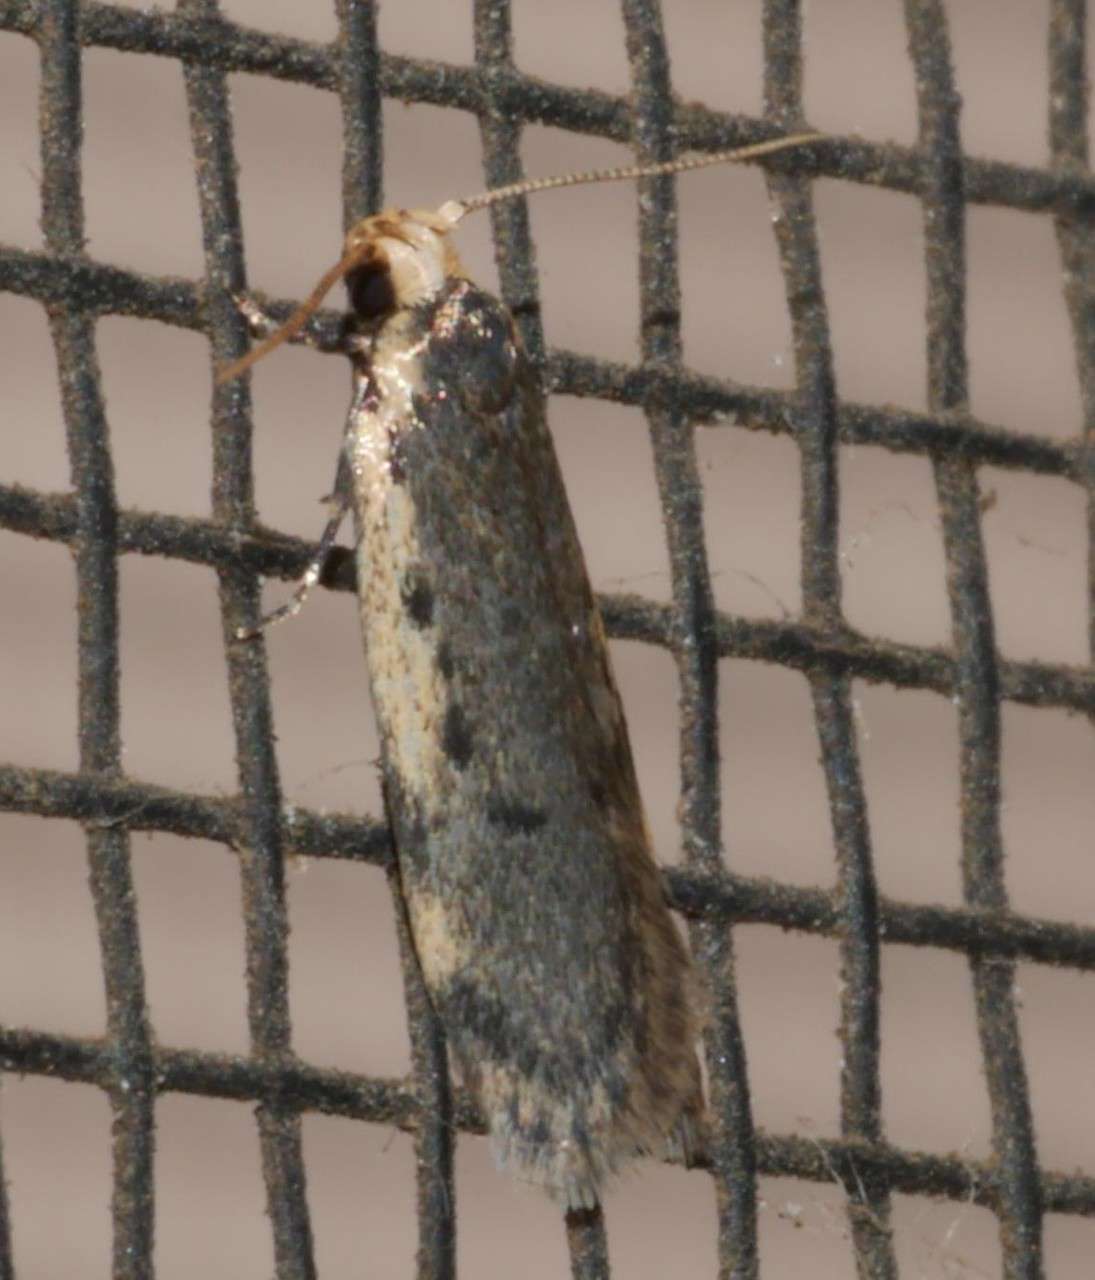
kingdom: Animalia
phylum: Arthropoda
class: Insecta
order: Lepidoptera
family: Oecophoridae
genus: Hoplostega
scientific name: Hoplostega ochroma
